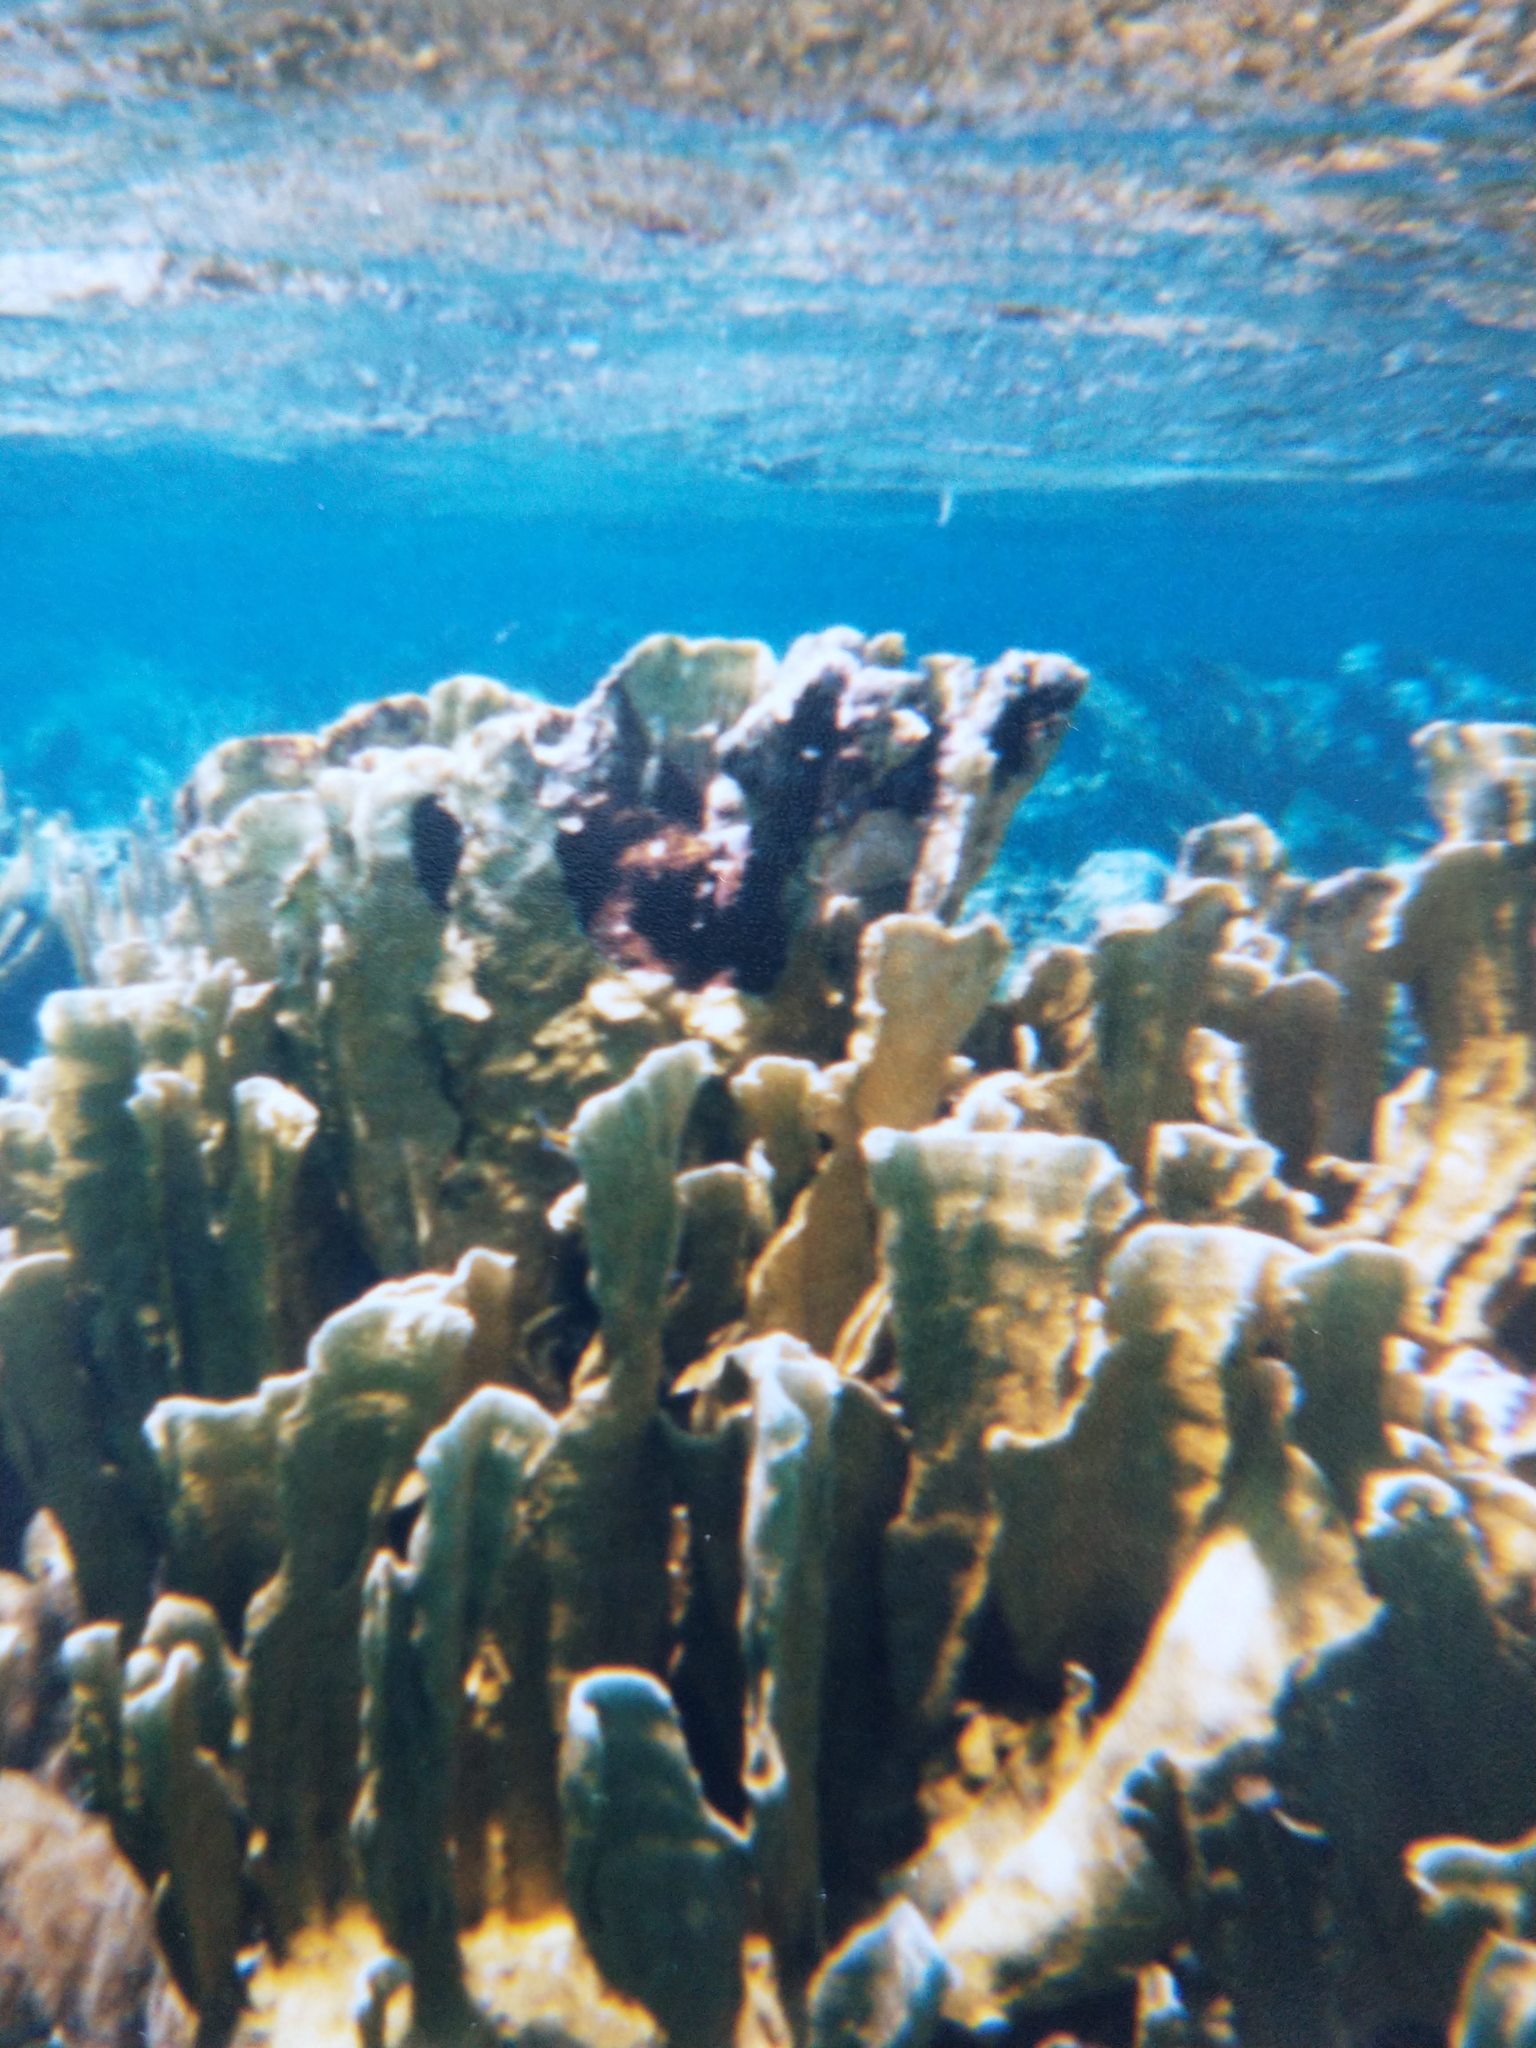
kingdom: Animalia
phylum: Cnidaria
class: Hydrozoa
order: Anthoathecata
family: Milleporidae
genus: Millepora
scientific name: Millepora complanata
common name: Bladed fire coral
